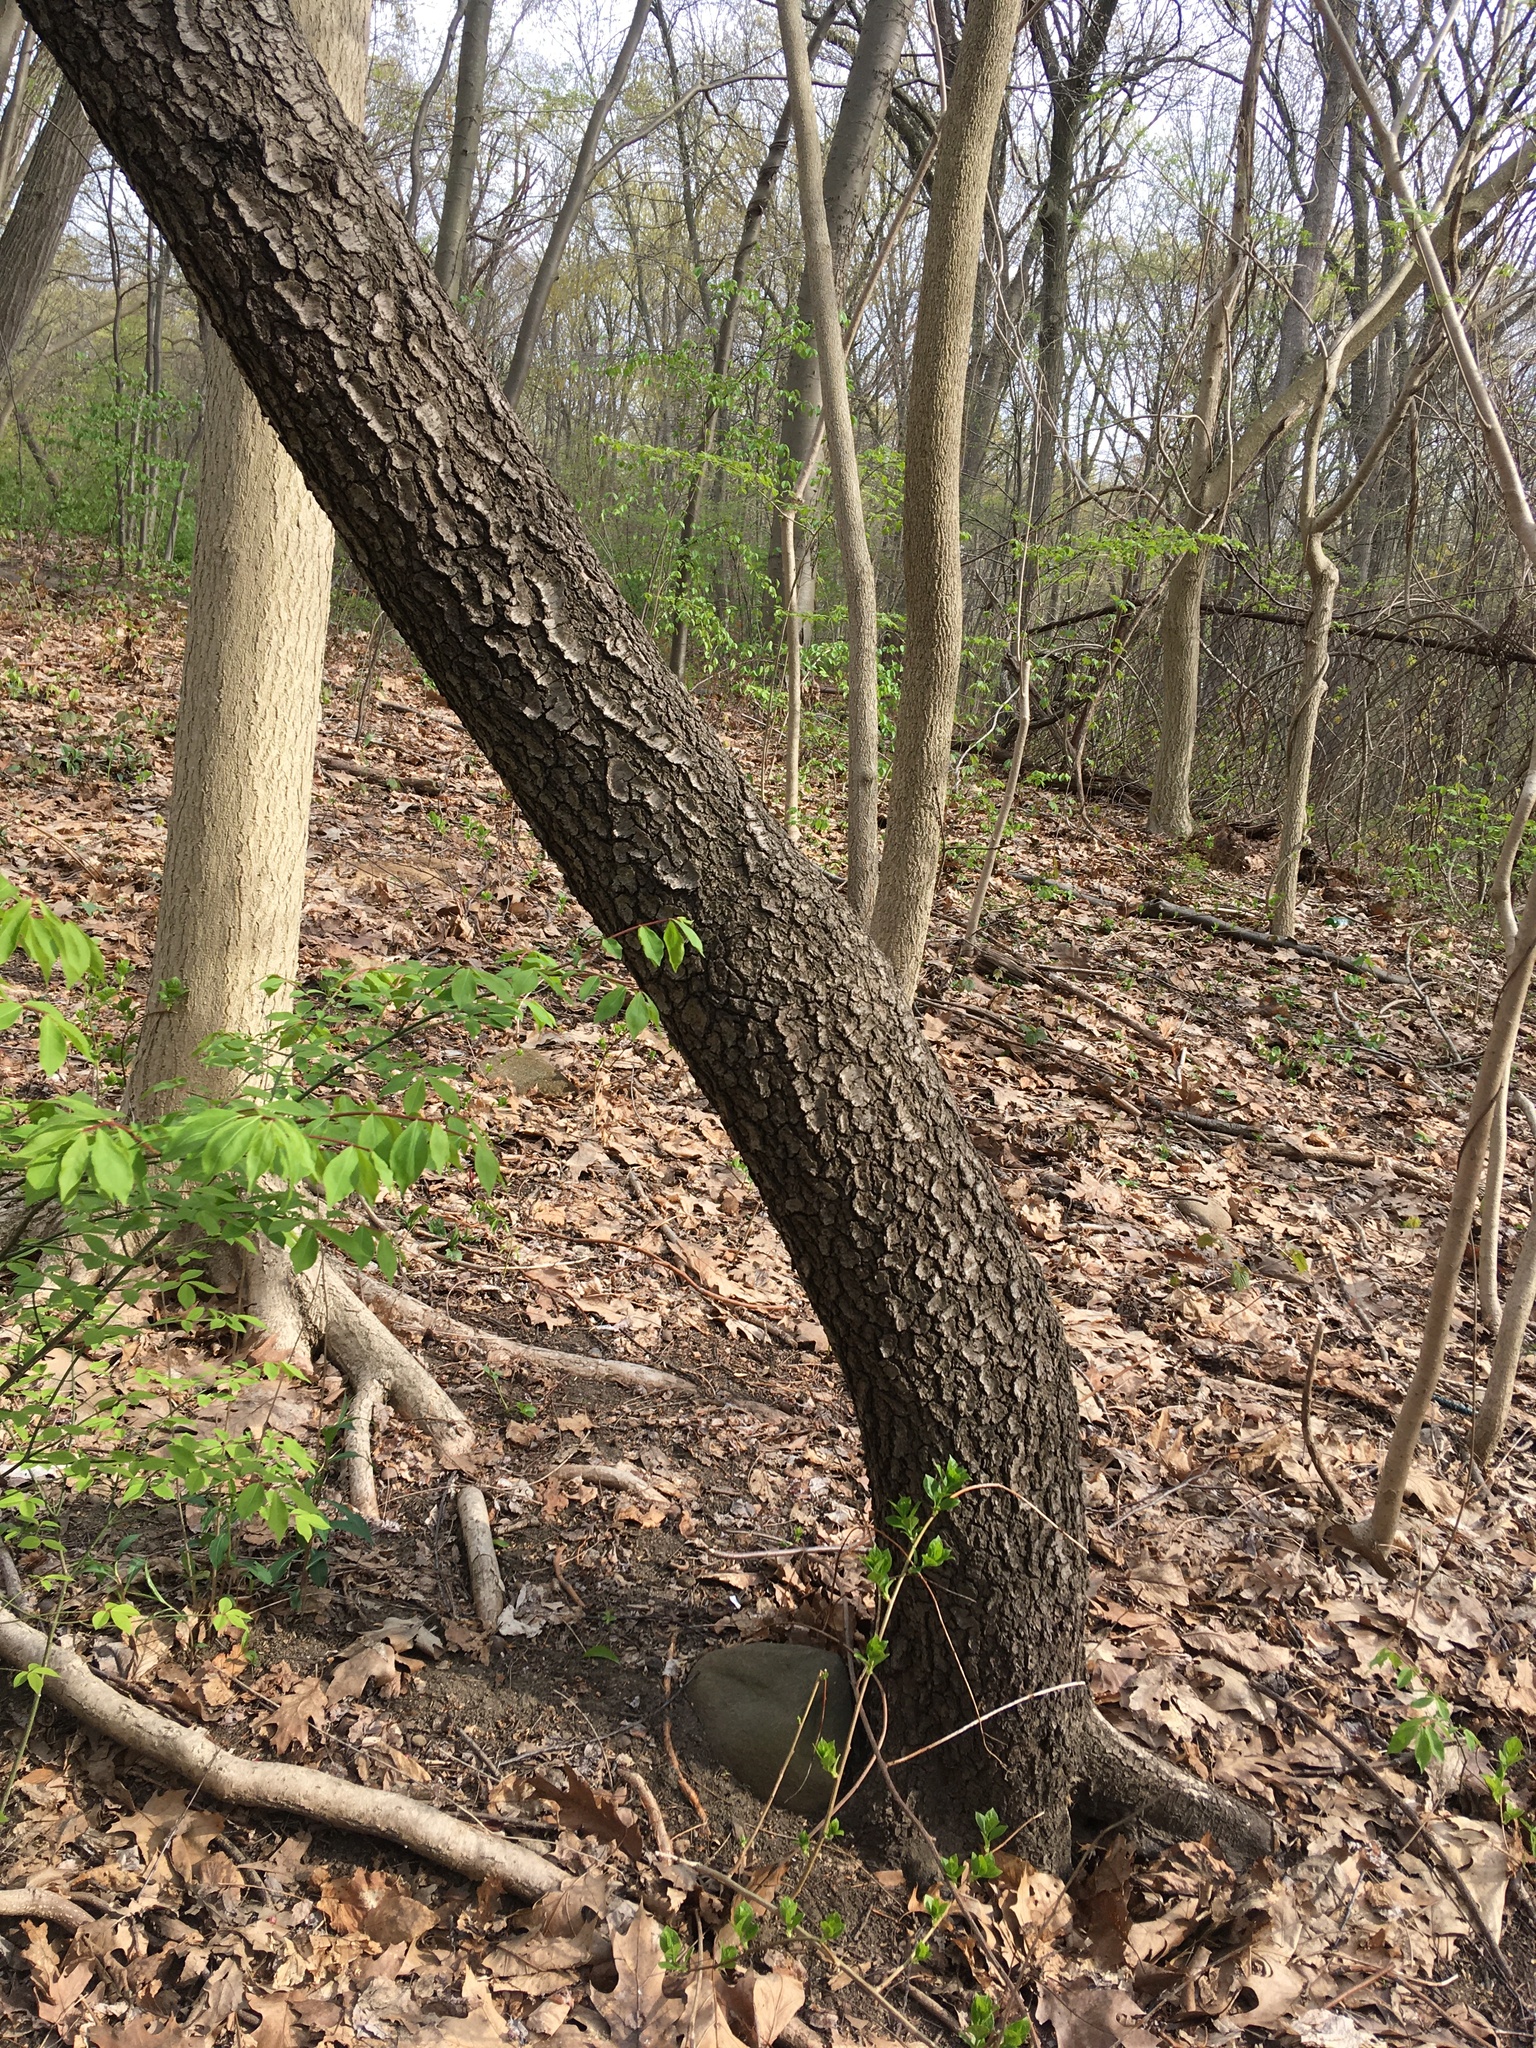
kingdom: Plantae
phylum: Tracheophyta
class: Magnoliopsida
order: Rosales
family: Rosaceae
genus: Prunus
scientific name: Prunus serotina
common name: Black cherry
